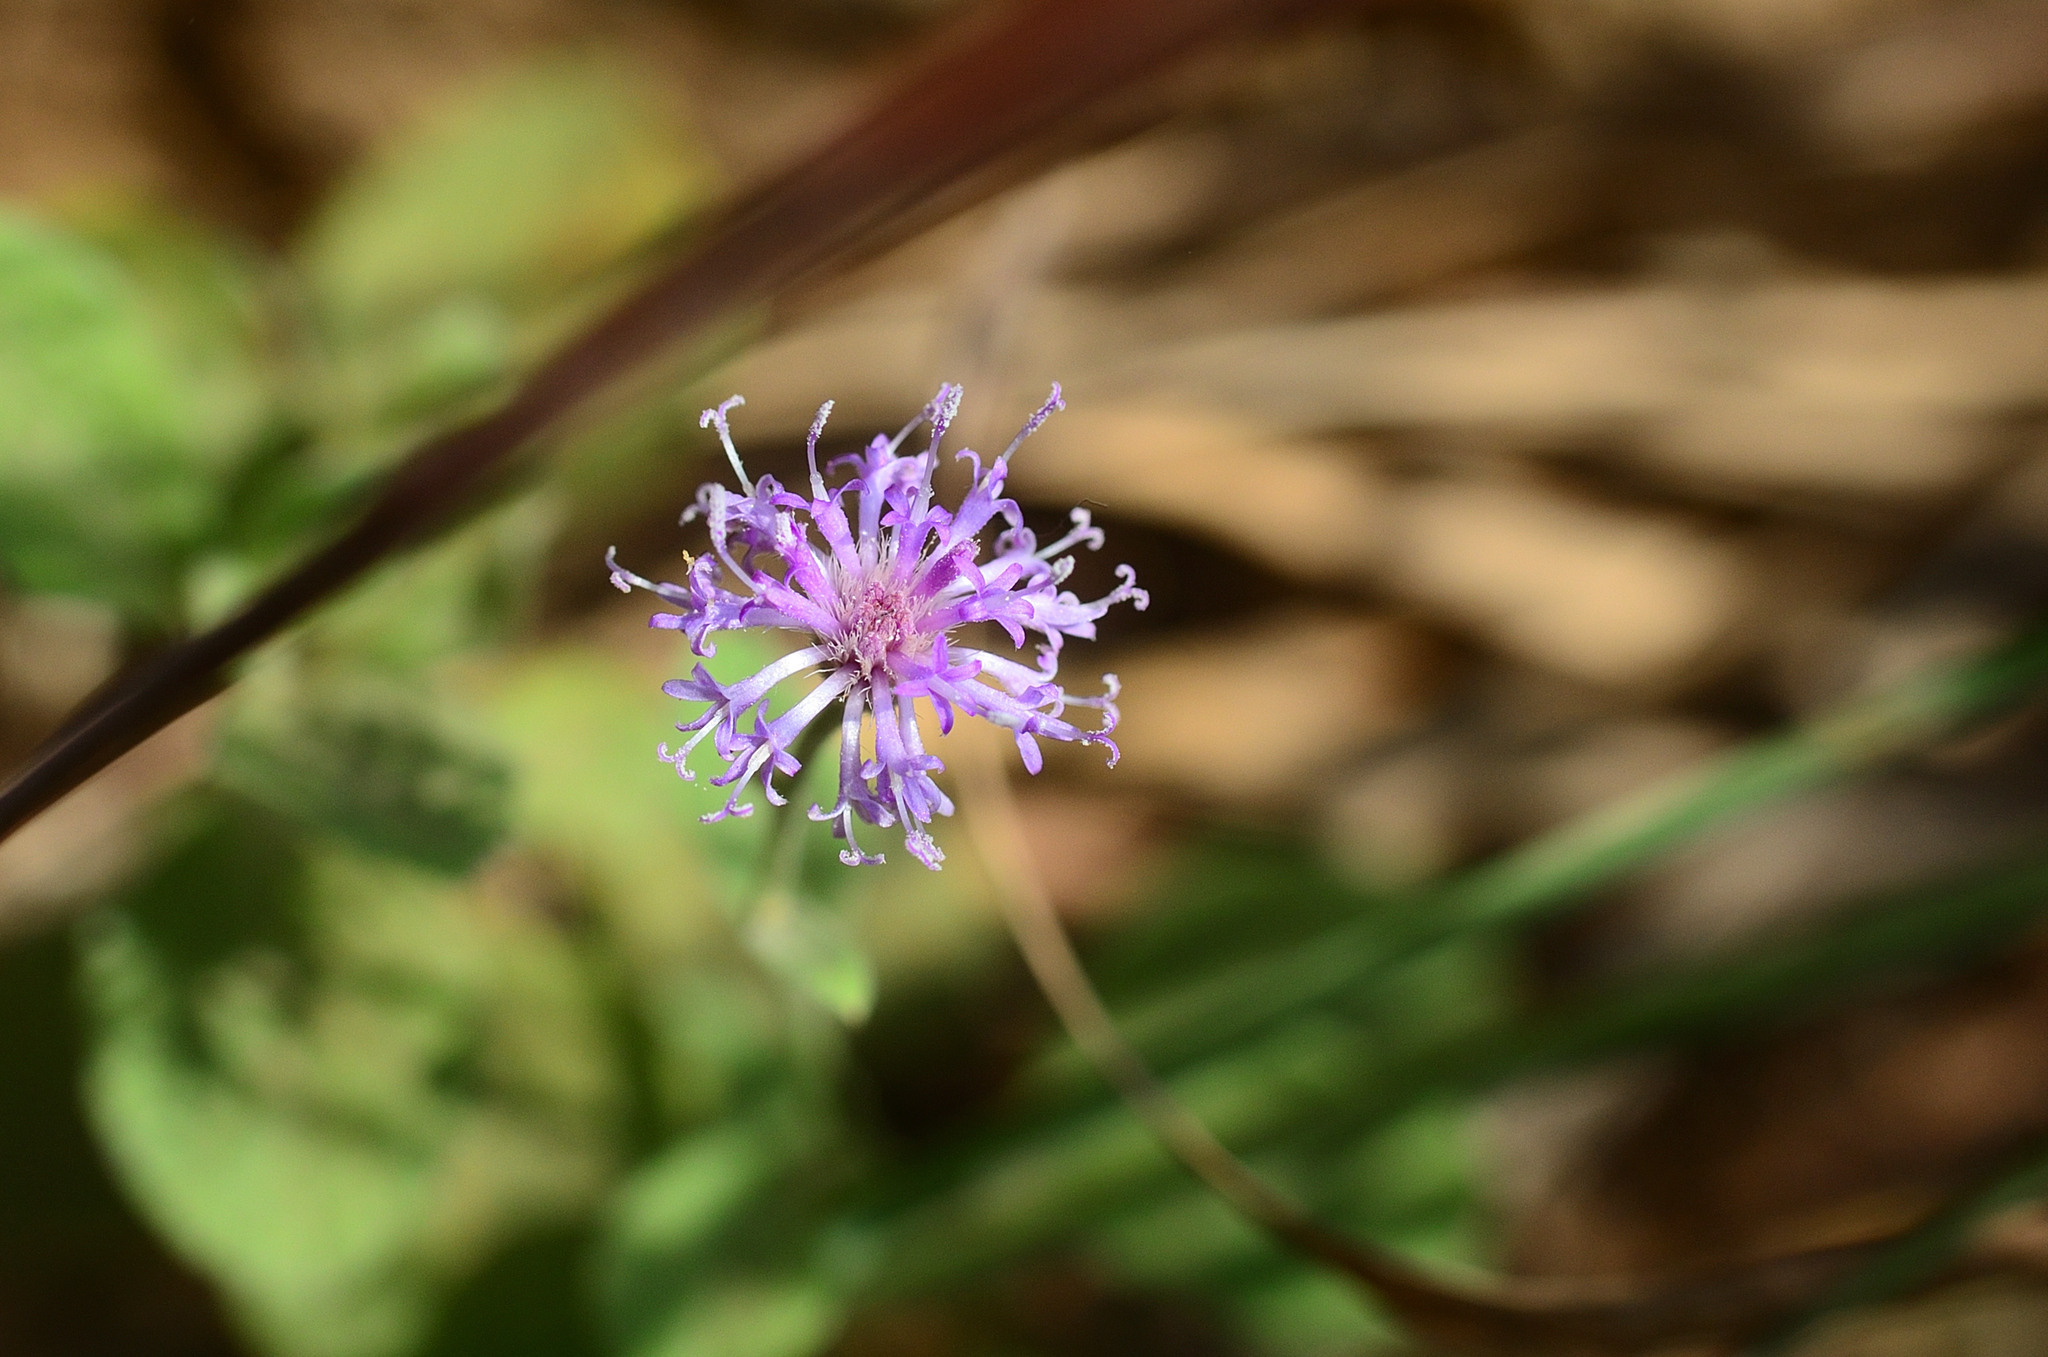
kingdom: Plantae
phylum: Tracheophyta
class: Magnoliopsida
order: Asterales
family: Asteraceae
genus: Cyanthillium
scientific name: Cyanthillium albicans
